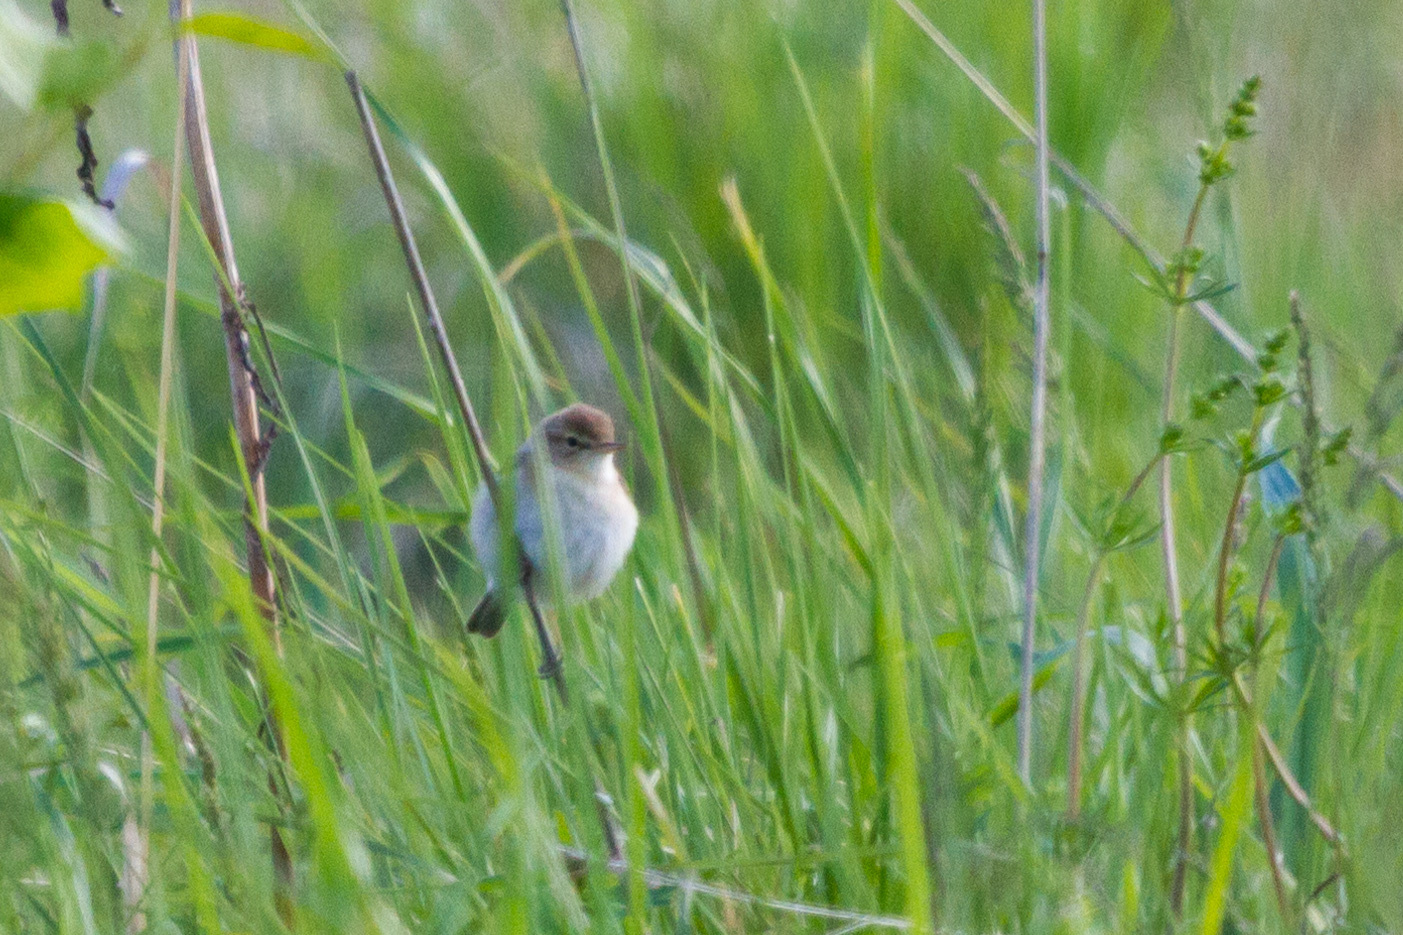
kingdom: Animalia
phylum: Chordata
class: Aves
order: Passeriformes
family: Acrocephalidae
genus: Iduna
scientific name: Iduna caligata
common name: Booted warbler
